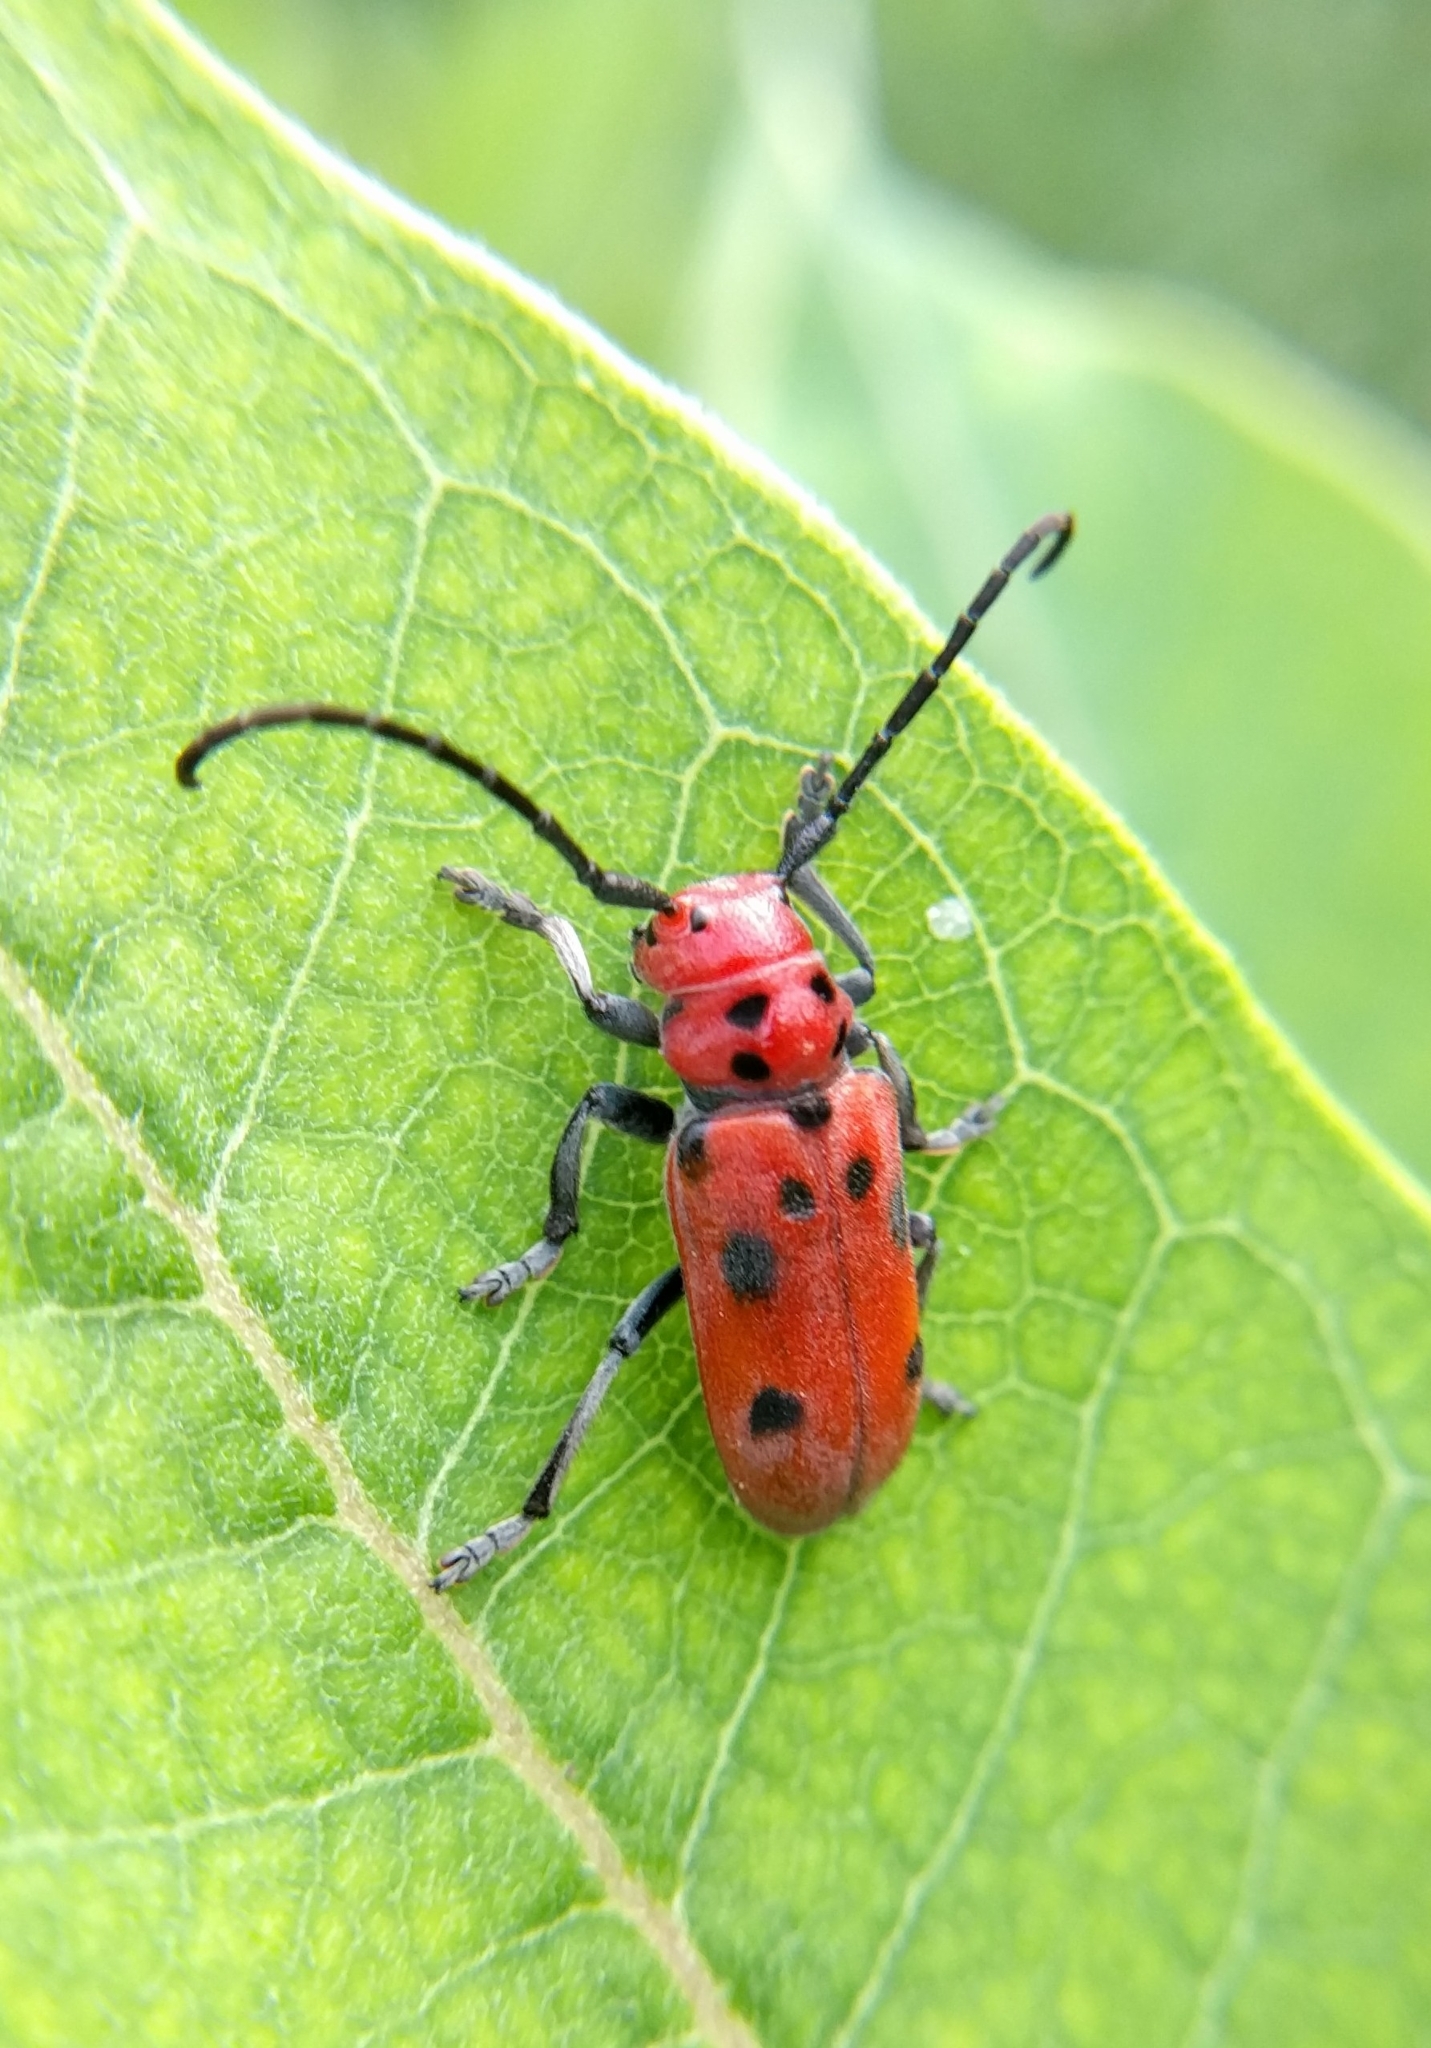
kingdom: Animalia
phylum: Arthropoda
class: Insecta
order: Coleoptera
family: Cerambycidae
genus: Tetraopes
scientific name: Tetraopes tetrophthalmus
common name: Red milkweed beetle
